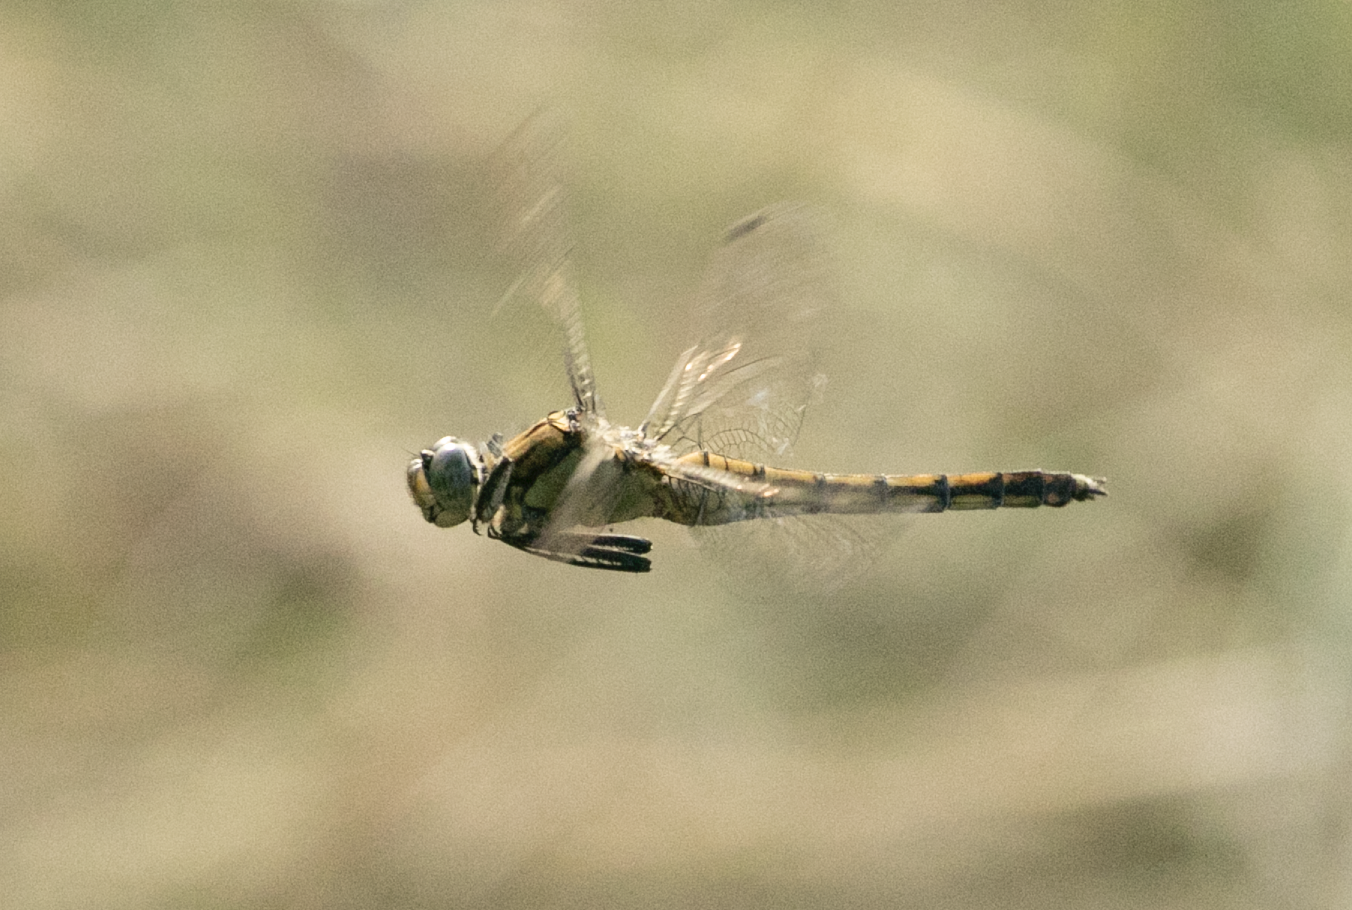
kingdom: Animalia
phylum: Arthropoda
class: Insecta
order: Odonata
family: Libellulidae
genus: Orthetrum
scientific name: Orthetrum cancellatum
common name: Black-tailed skimmer
